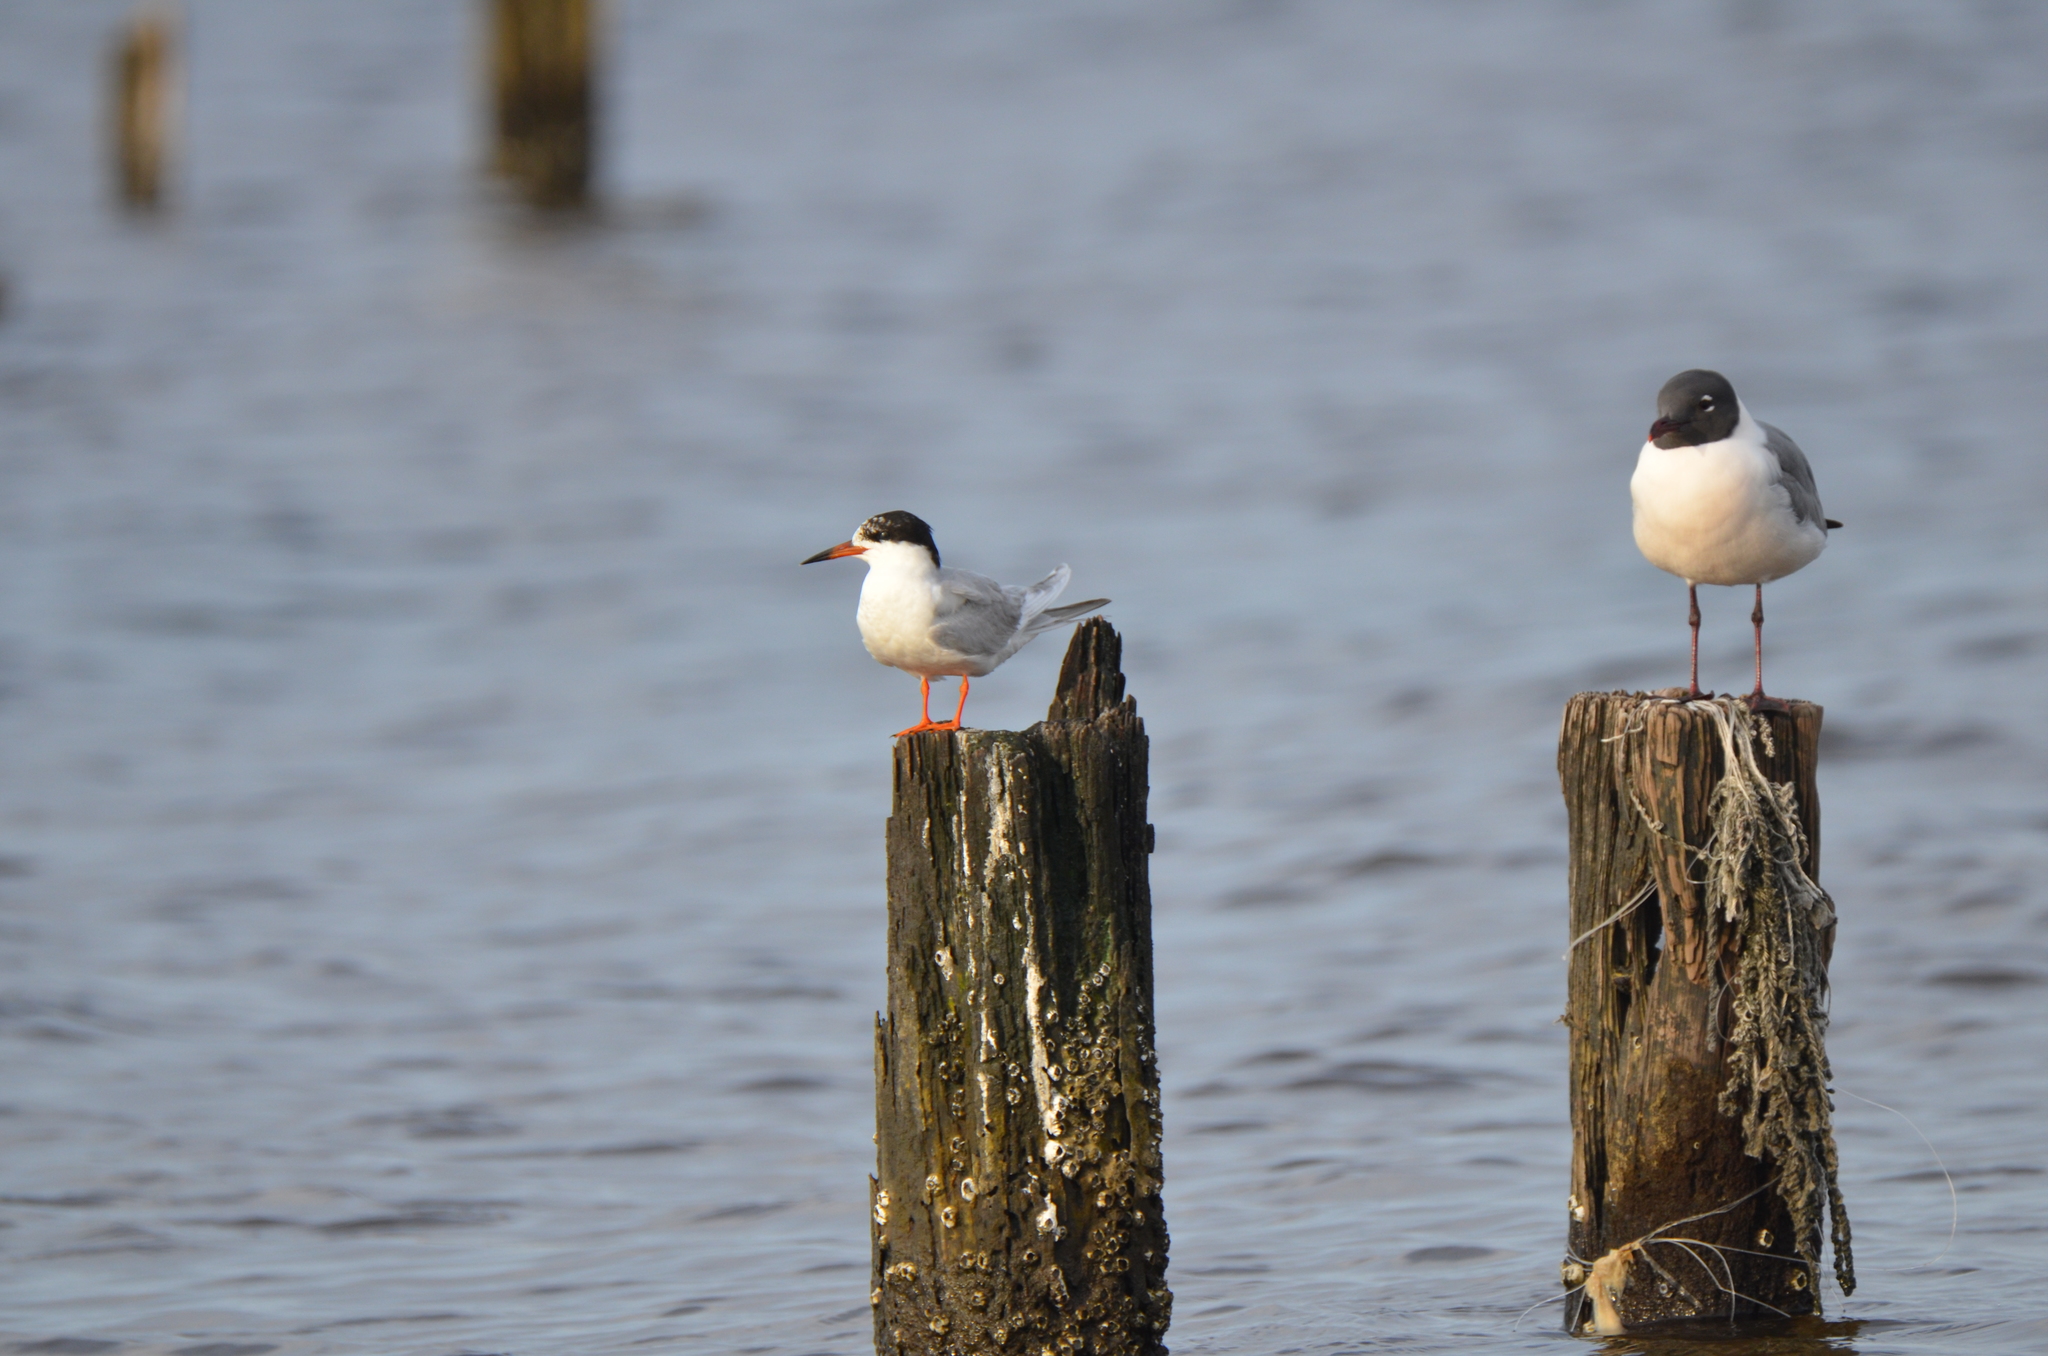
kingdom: Animalia
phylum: Chordata
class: Aves
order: Charadriiformes
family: Laridae
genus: Sterna
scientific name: Sterna forsteri
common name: Forster's tern
